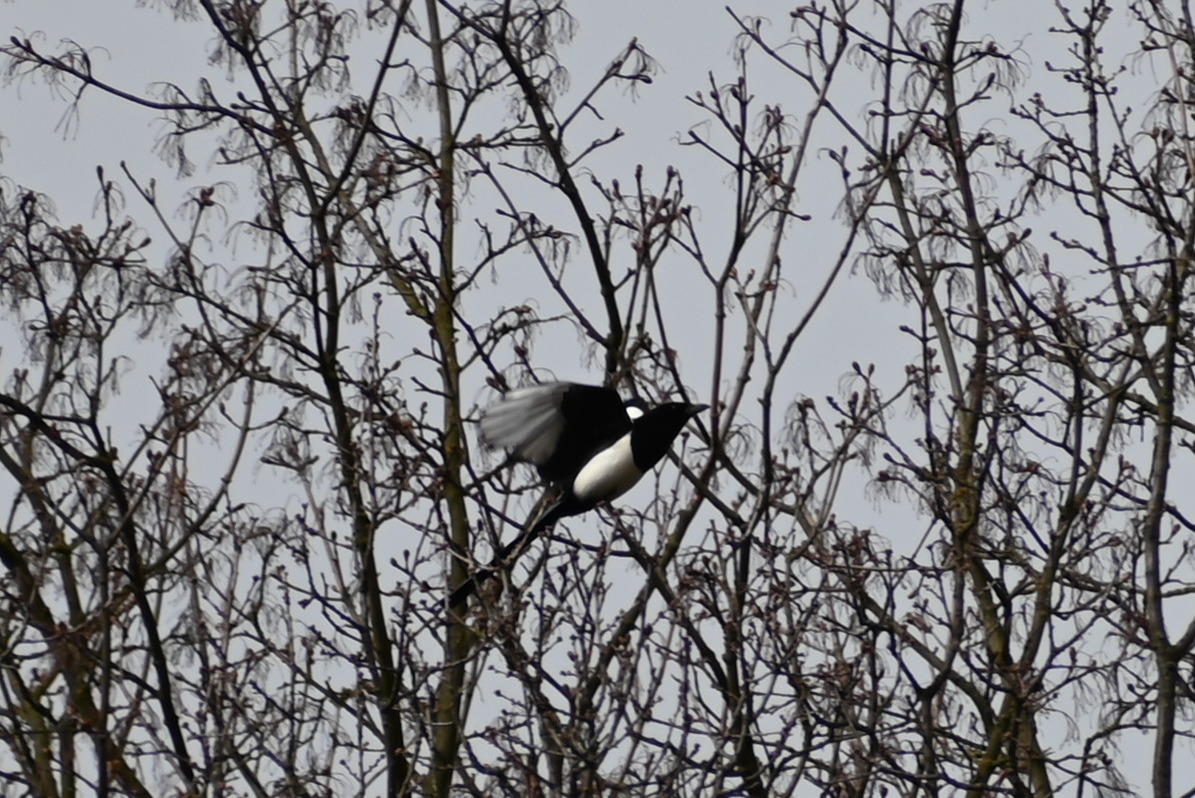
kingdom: Animalia
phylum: Chordata
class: Aves
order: Passeriformes
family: Corvidae
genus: Pica
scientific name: Pica pica
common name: Eurasian magpie
